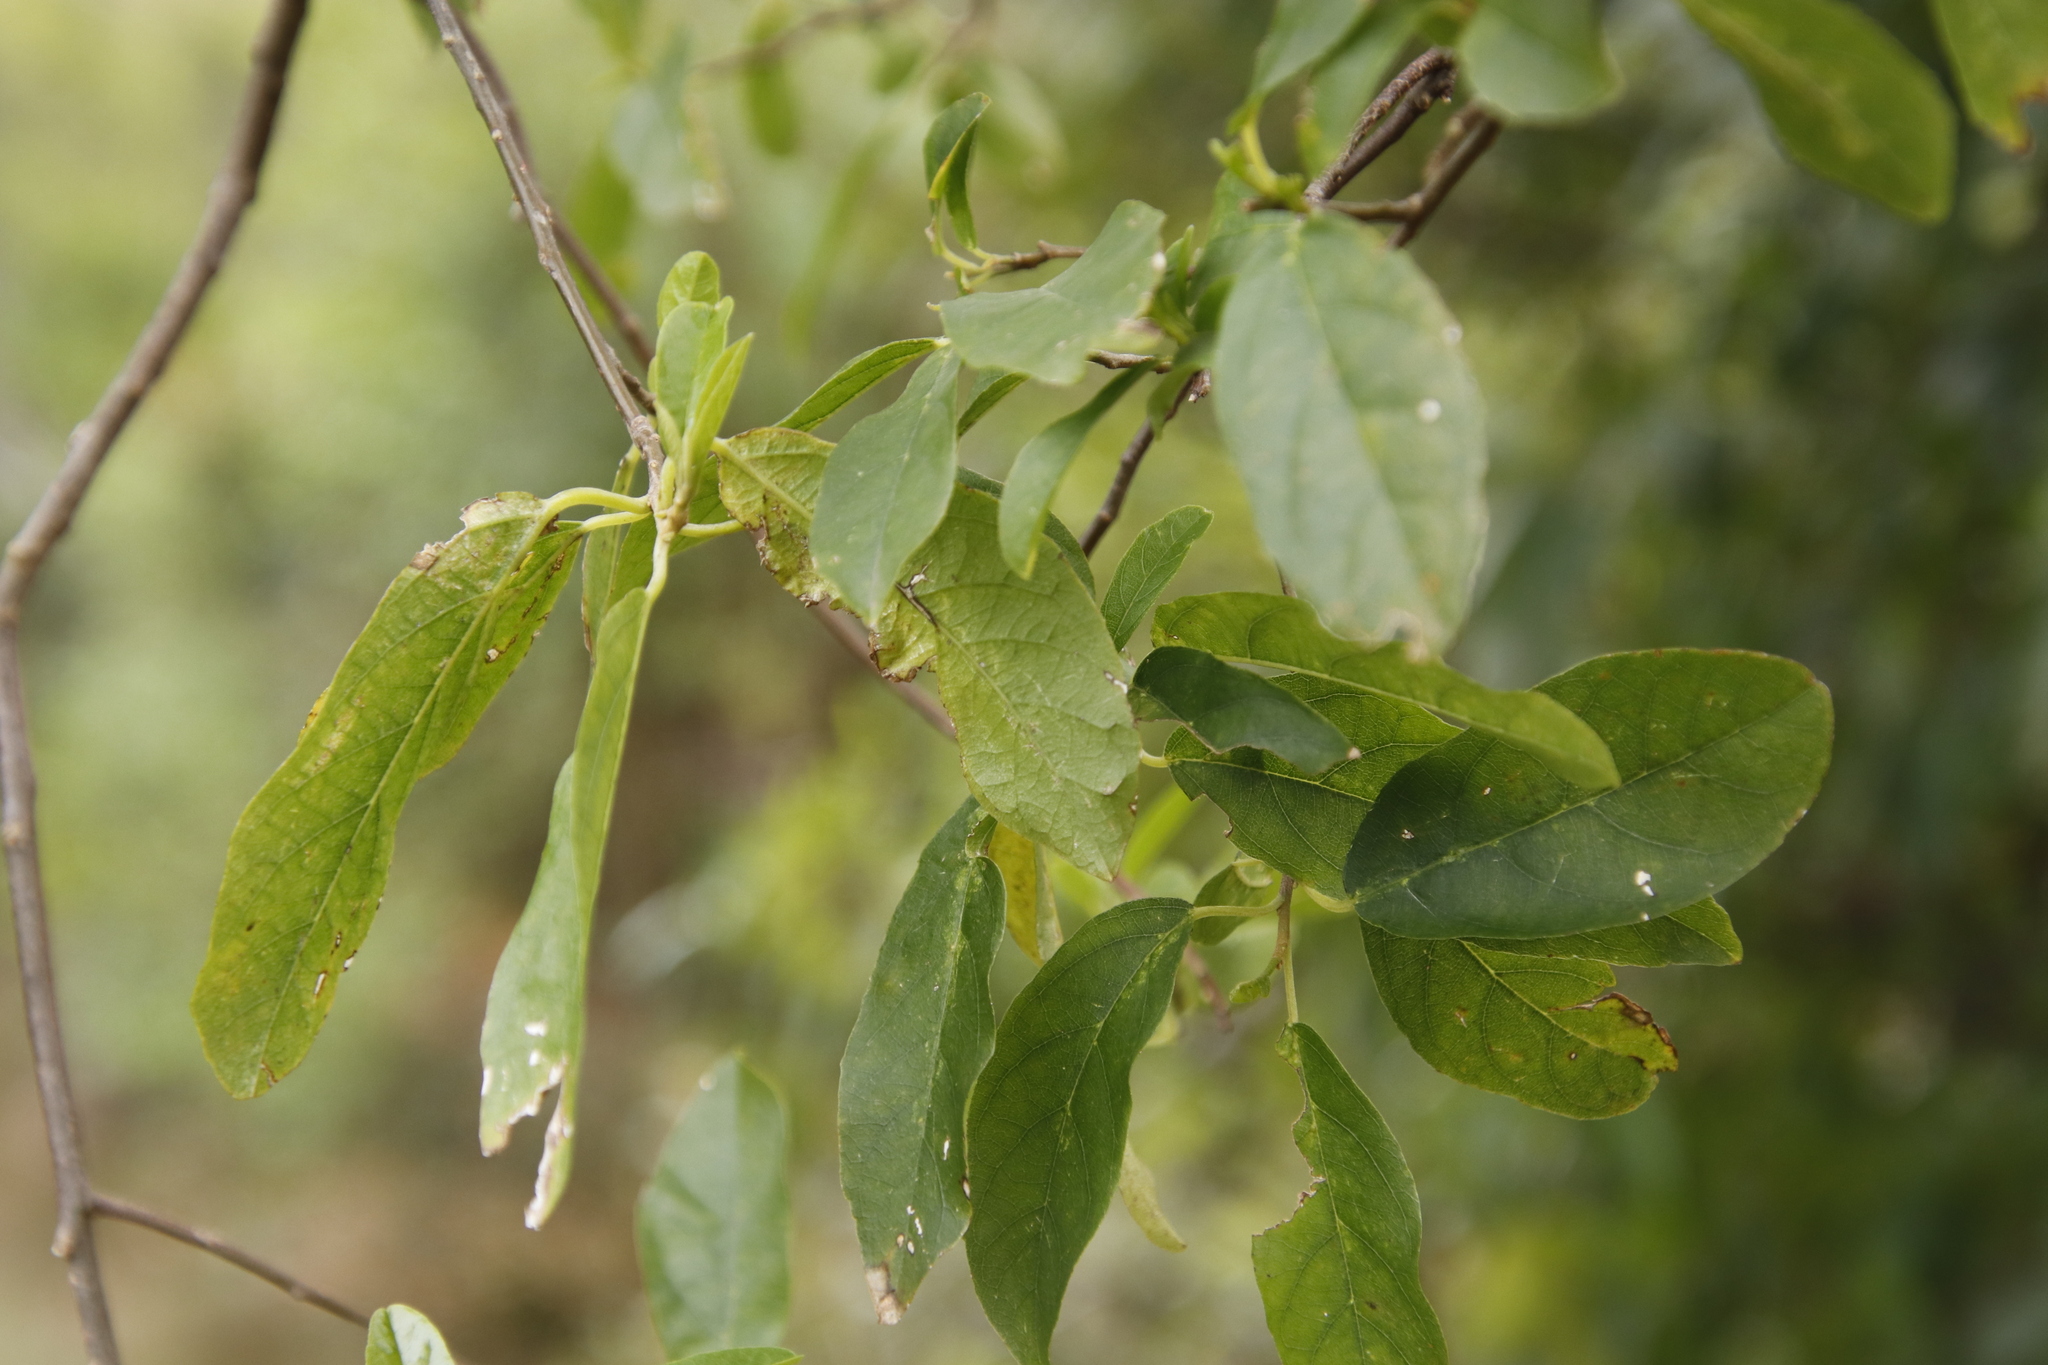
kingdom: Plantae
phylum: Tracheophyta
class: Magnoliopsida
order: Malpighiales
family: Achariaceae
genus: Kiggelaria
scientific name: Kiggelaria africana
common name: Wild peach
